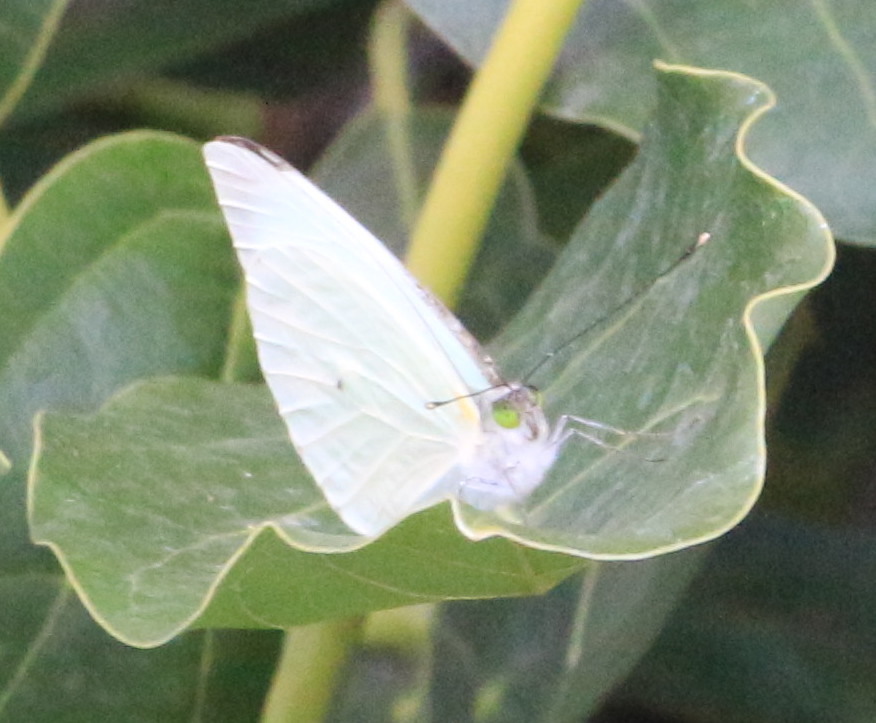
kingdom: Animalia
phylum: Arthropoda
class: Insecta
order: Lepidoptera
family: Pieridae
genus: Leptophobia
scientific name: Leptophobia aripa
